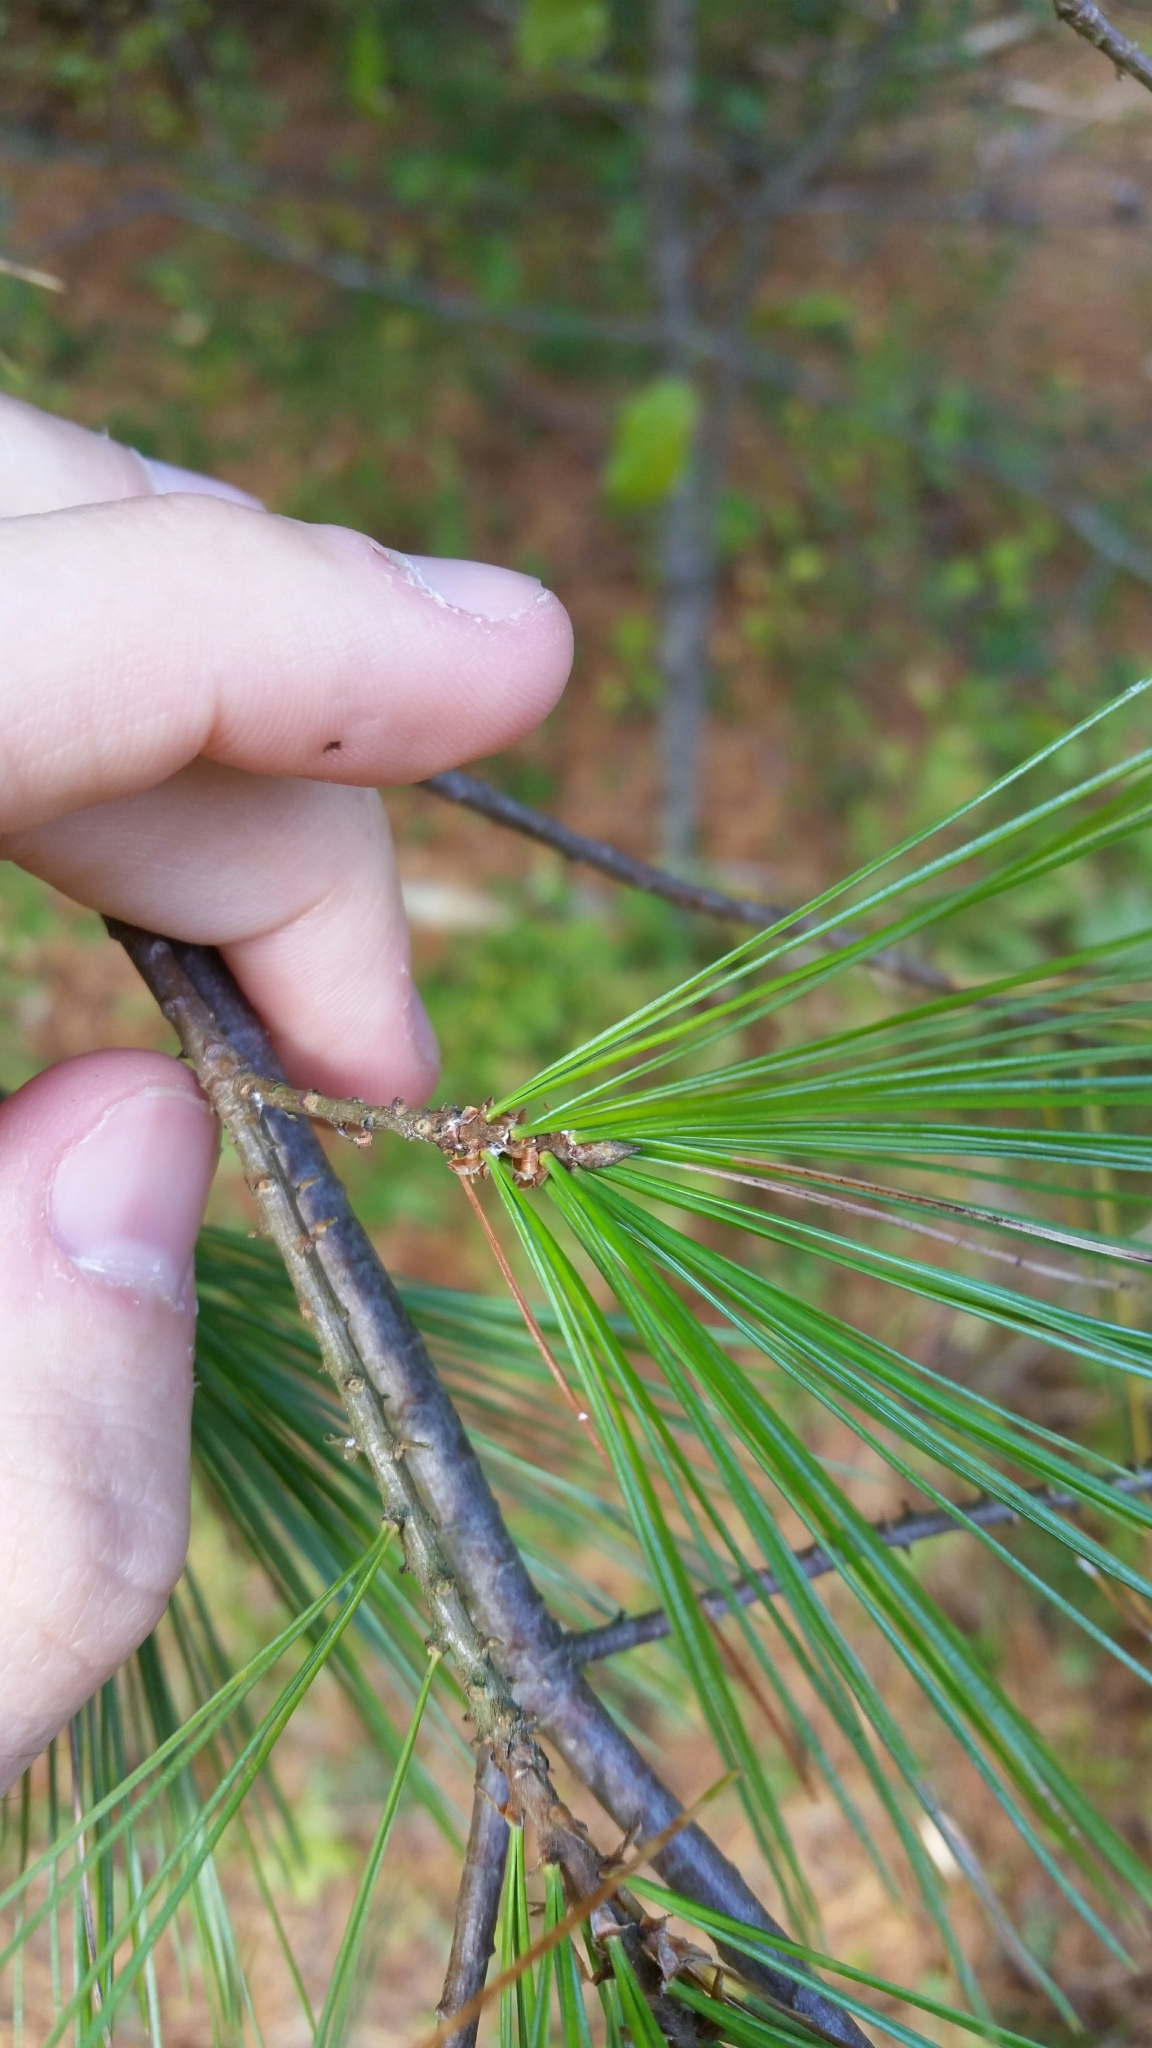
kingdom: Plantae
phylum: Tracheophyta
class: Pinopsida
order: Pinales
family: Pinaceae
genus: Pinus
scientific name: Pinus strobus
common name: Weymouth pine
